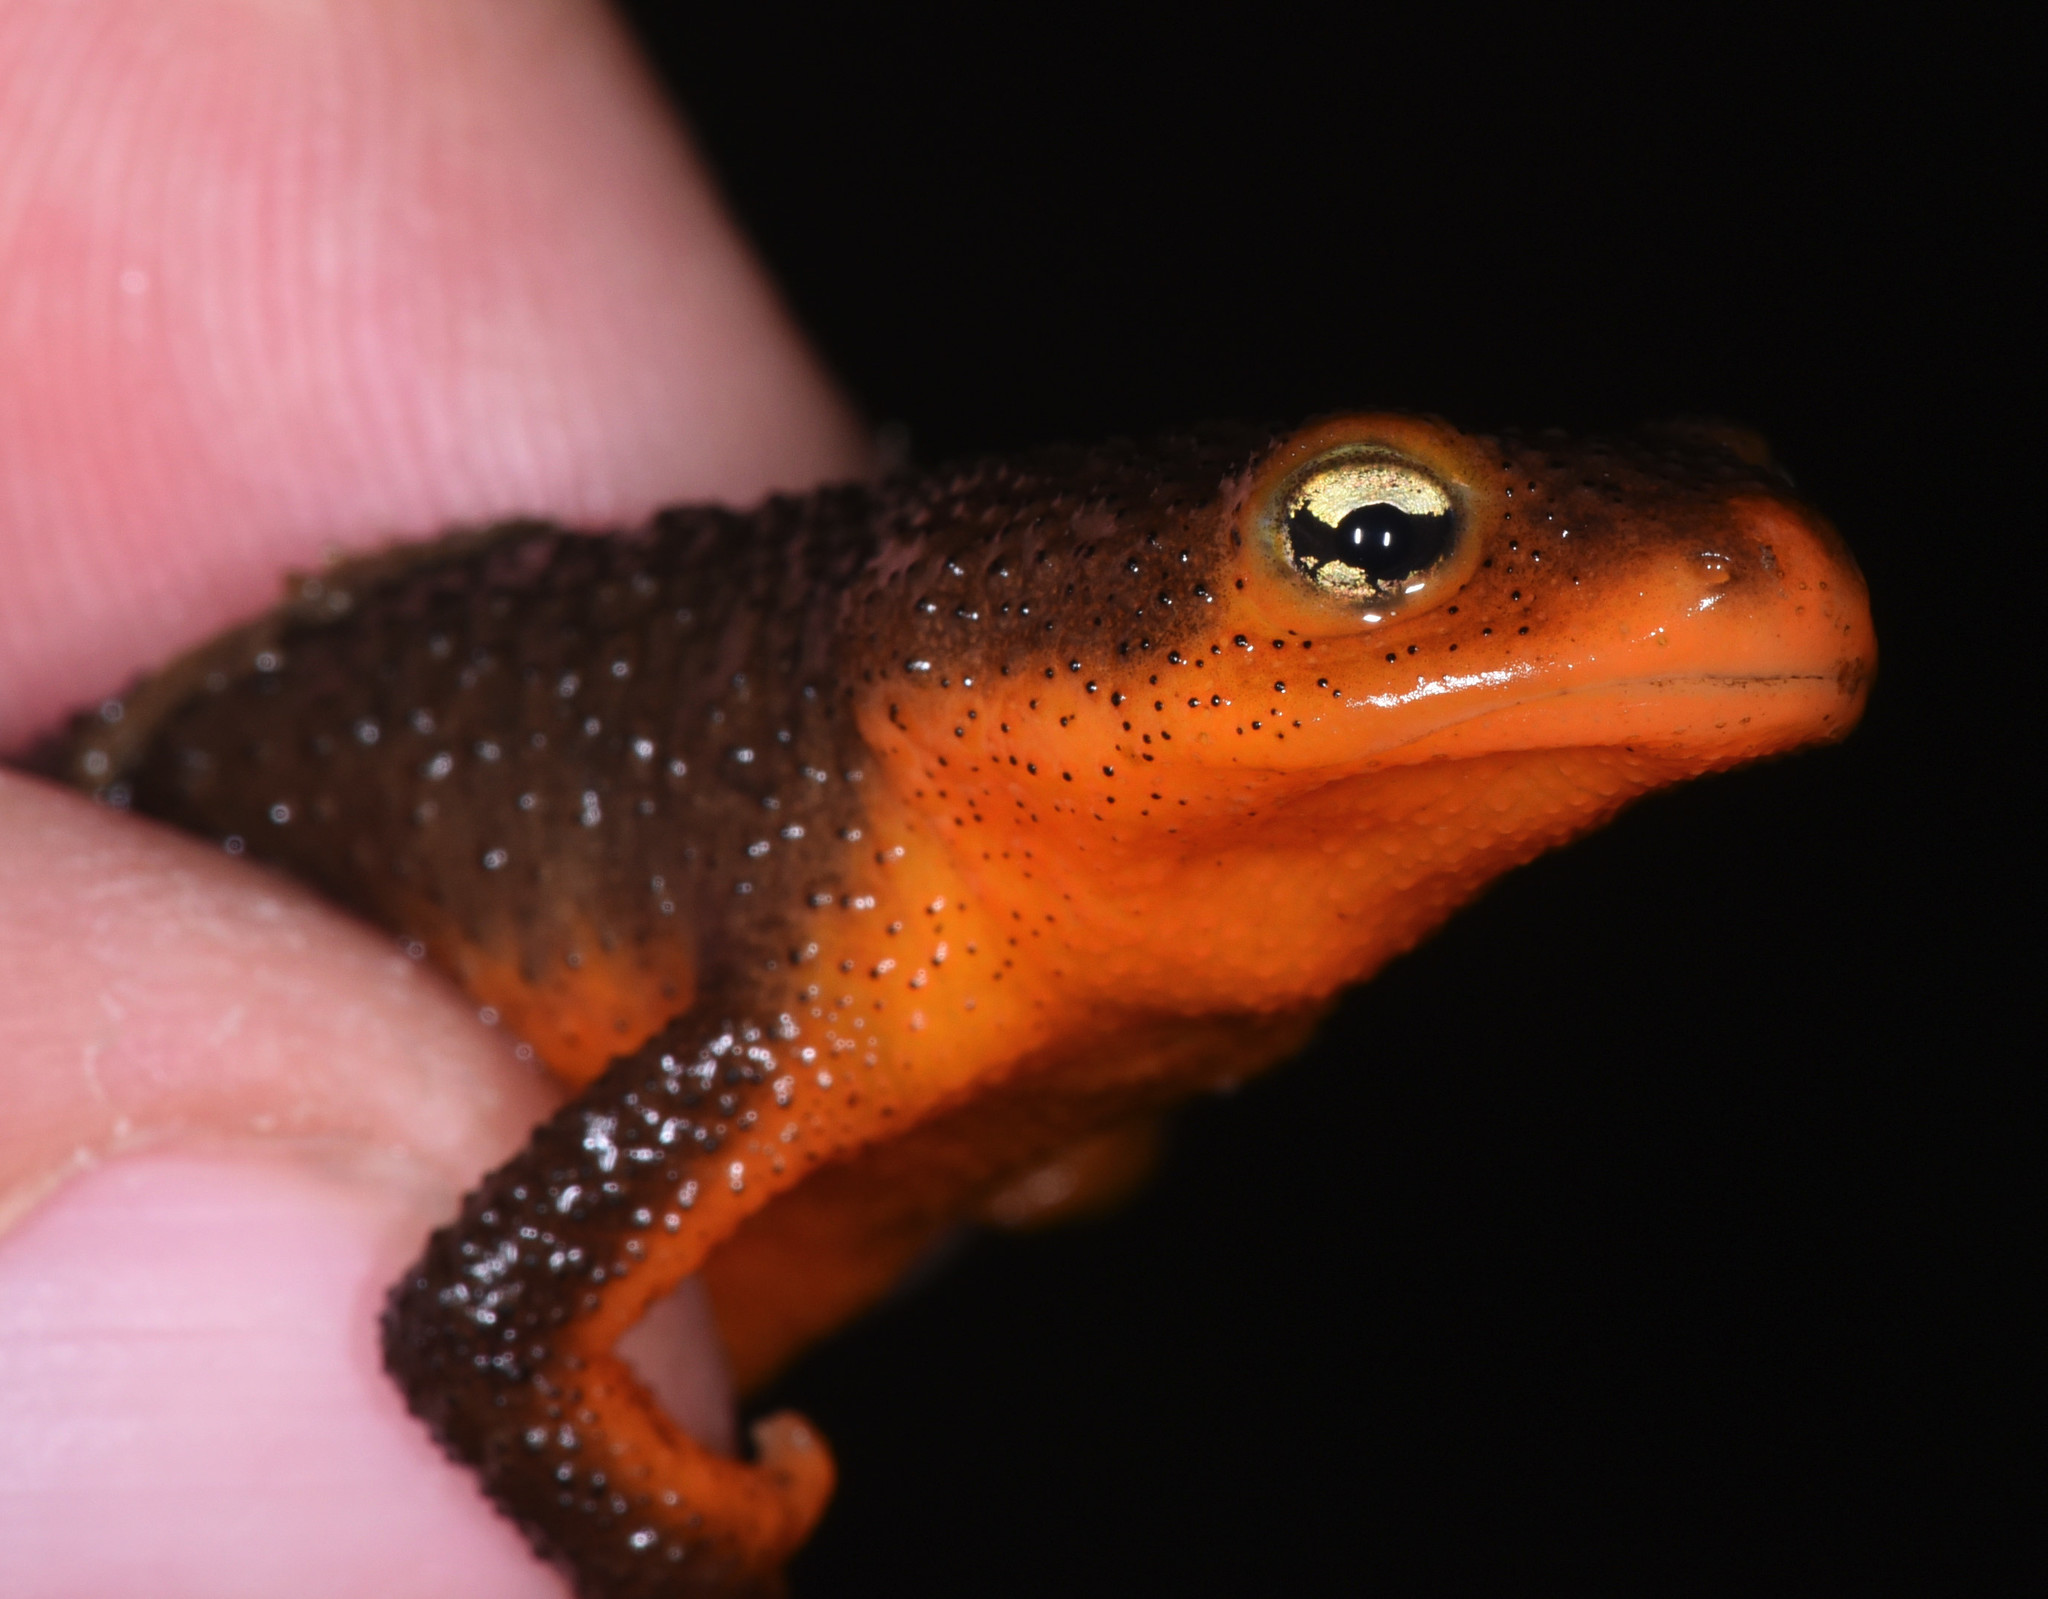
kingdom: Animalia
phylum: Chordata
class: Amphibia
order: Caudata
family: Salamandridae
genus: Taricha
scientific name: Taricha granulosa
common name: Roughskin newt
